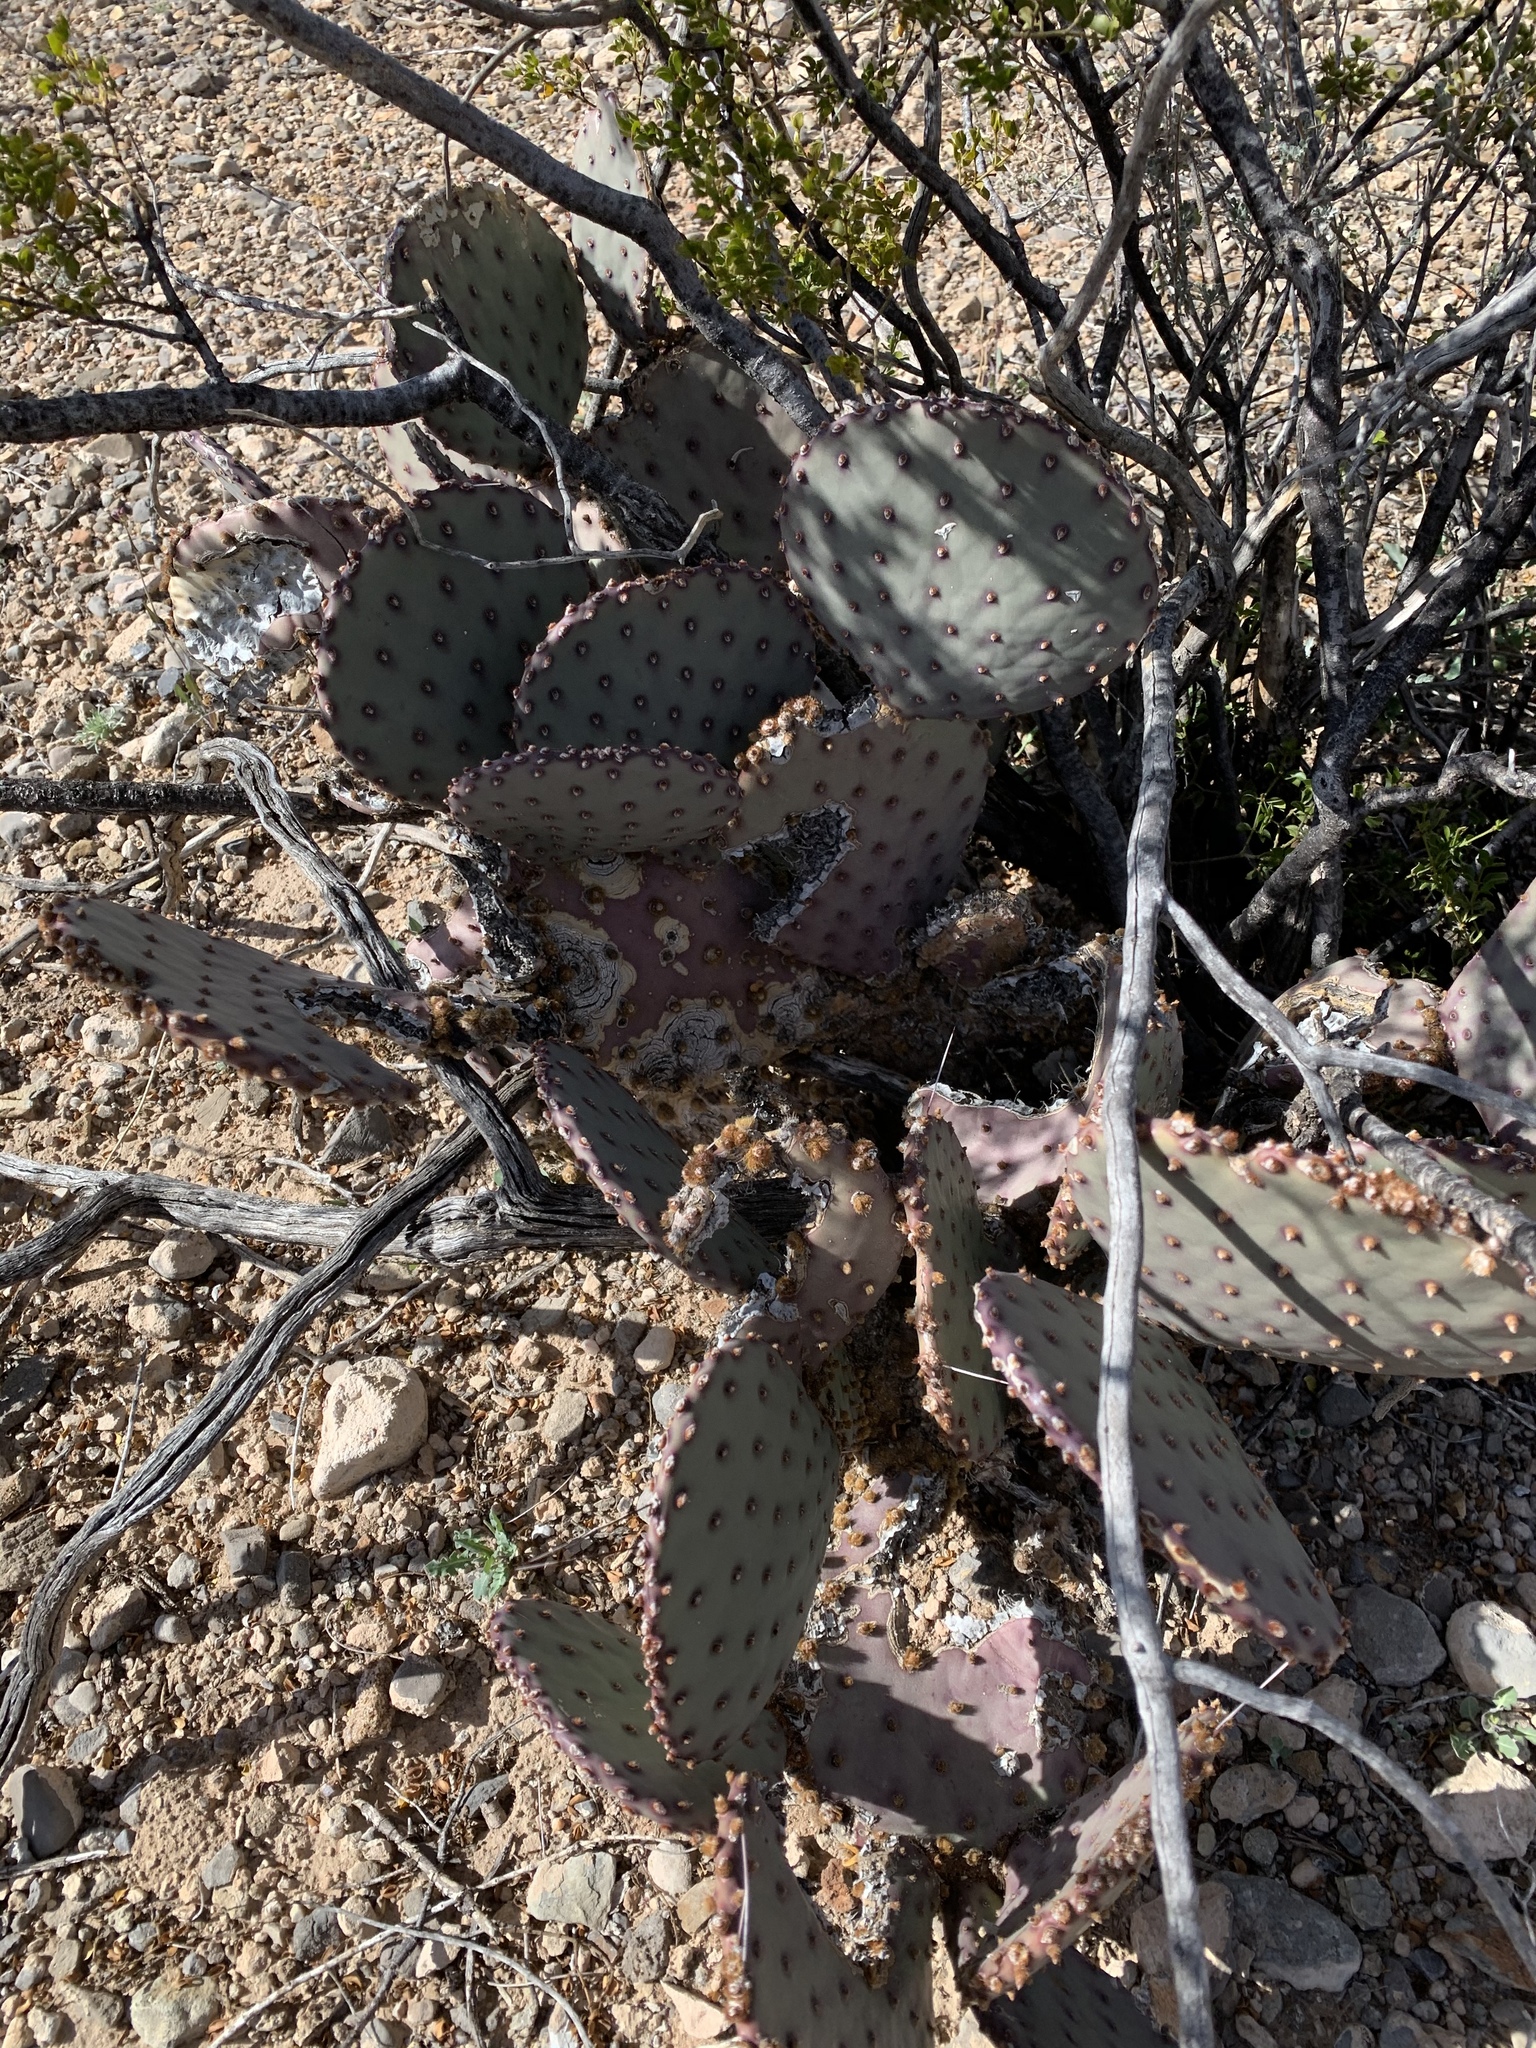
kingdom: Plantae
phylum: Tracheophyta
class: Magnoliopsida
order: Caryophyllales
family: Cactaceae
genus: Opuntia
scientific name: Opuntia macrocentra
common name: Purple prickly-pear
